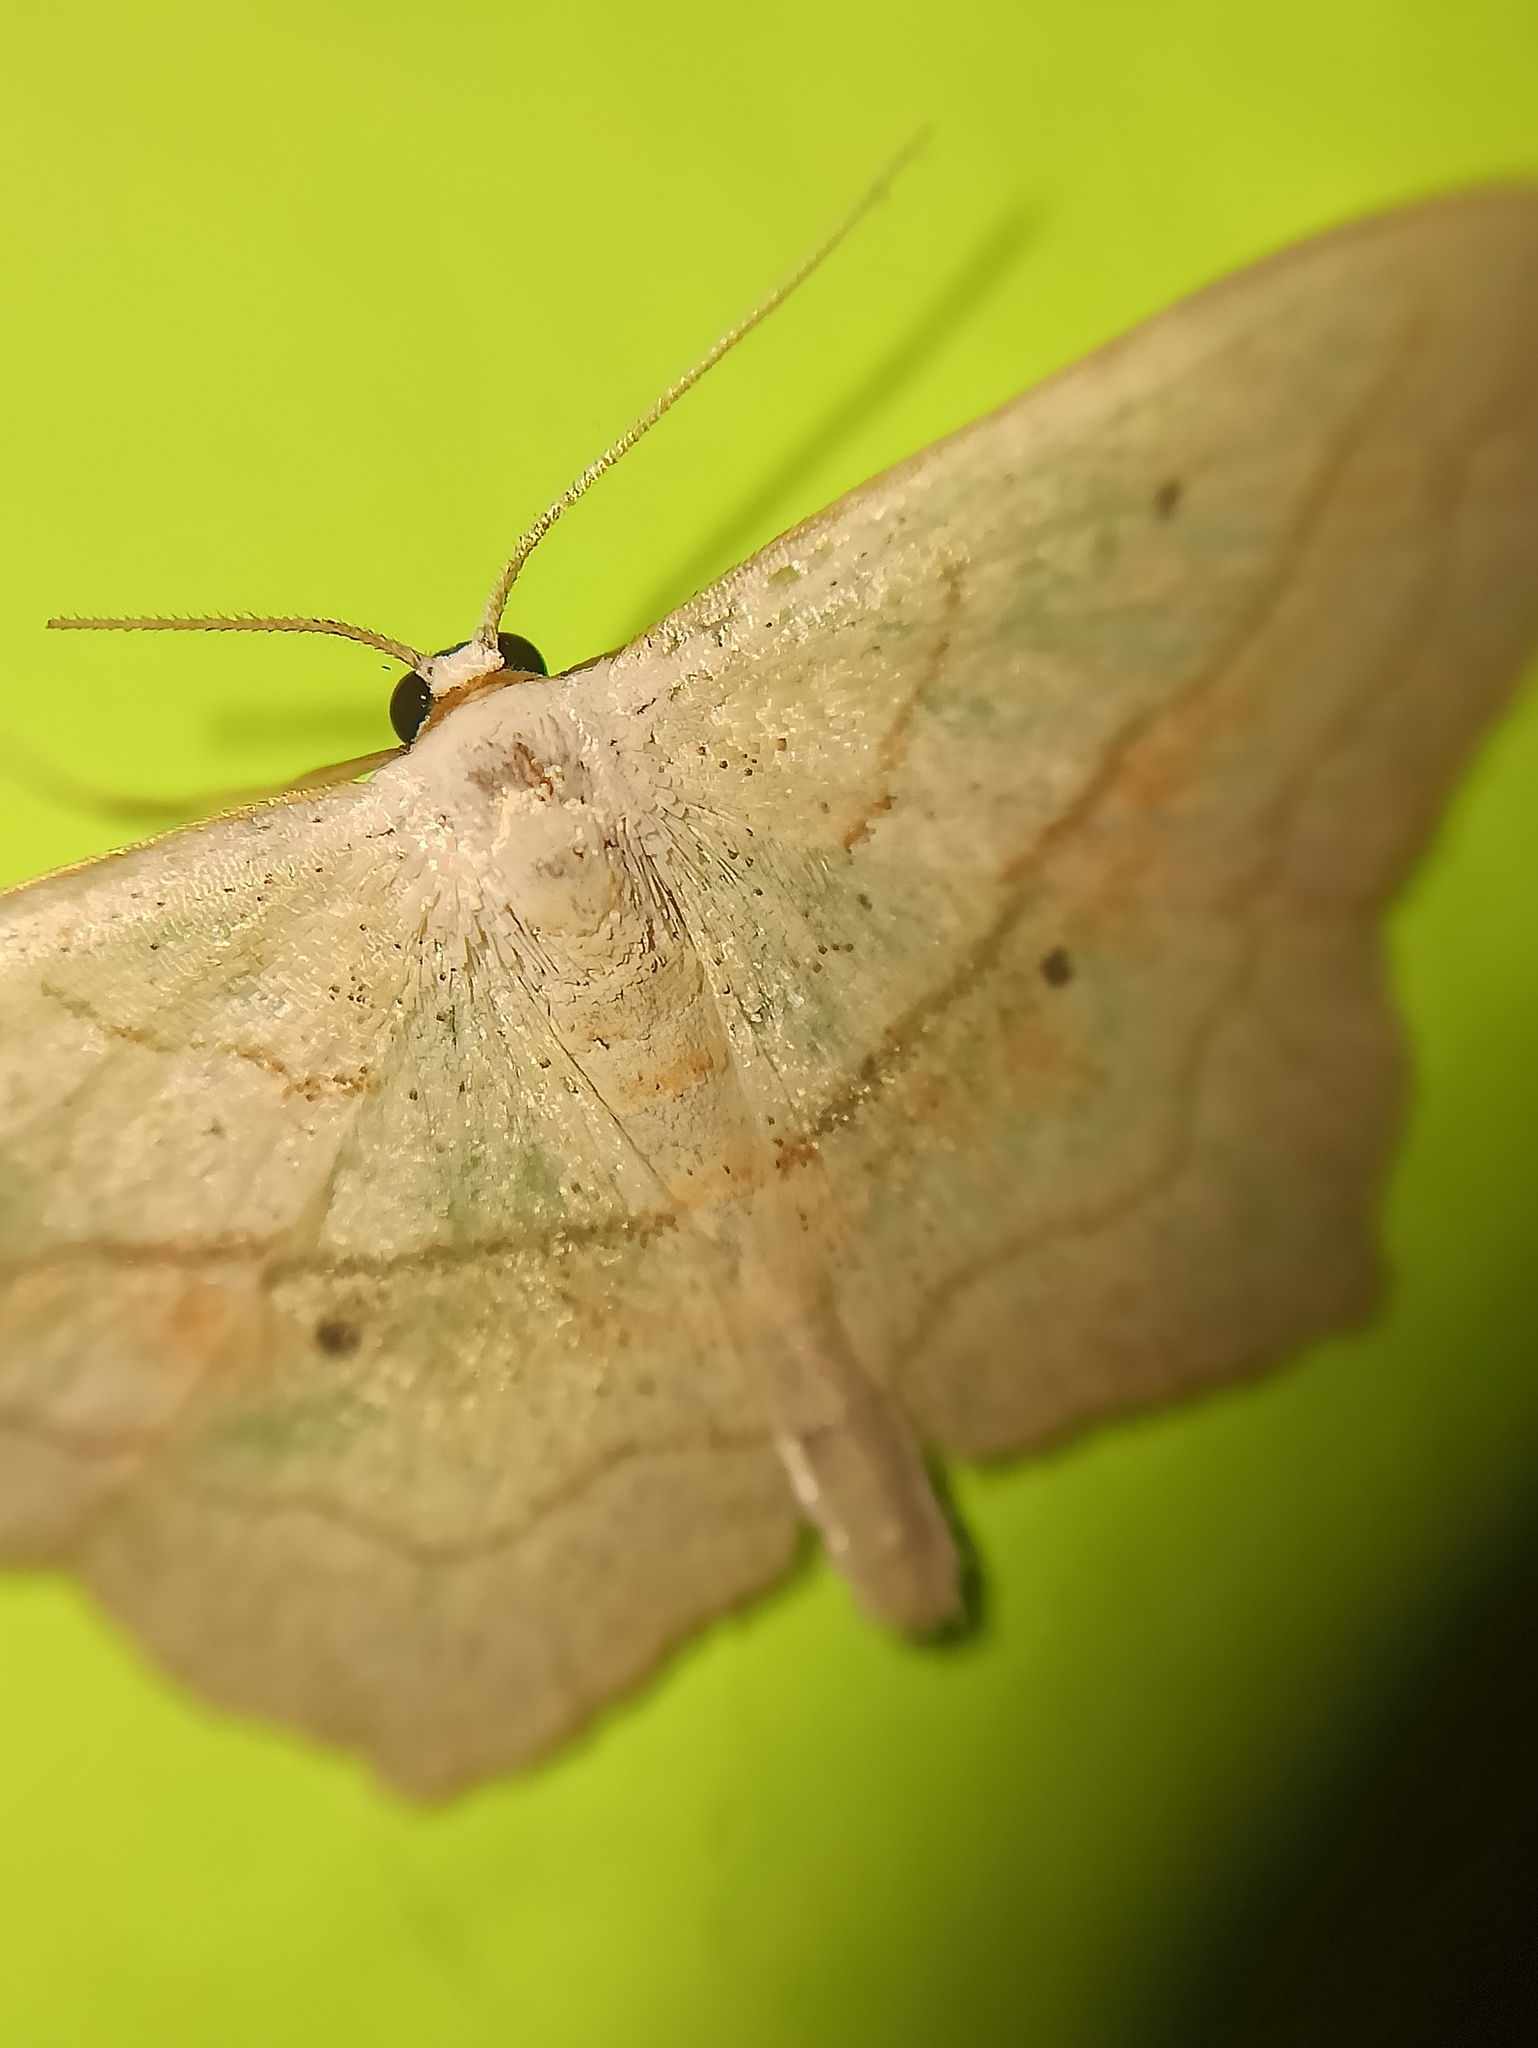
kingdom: Animalia
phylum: Arthropoda
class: Insecta
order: Lepidoptera
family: Geometridae
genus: Scopula
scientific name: Scopula imitaria
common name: Small blood-vein
